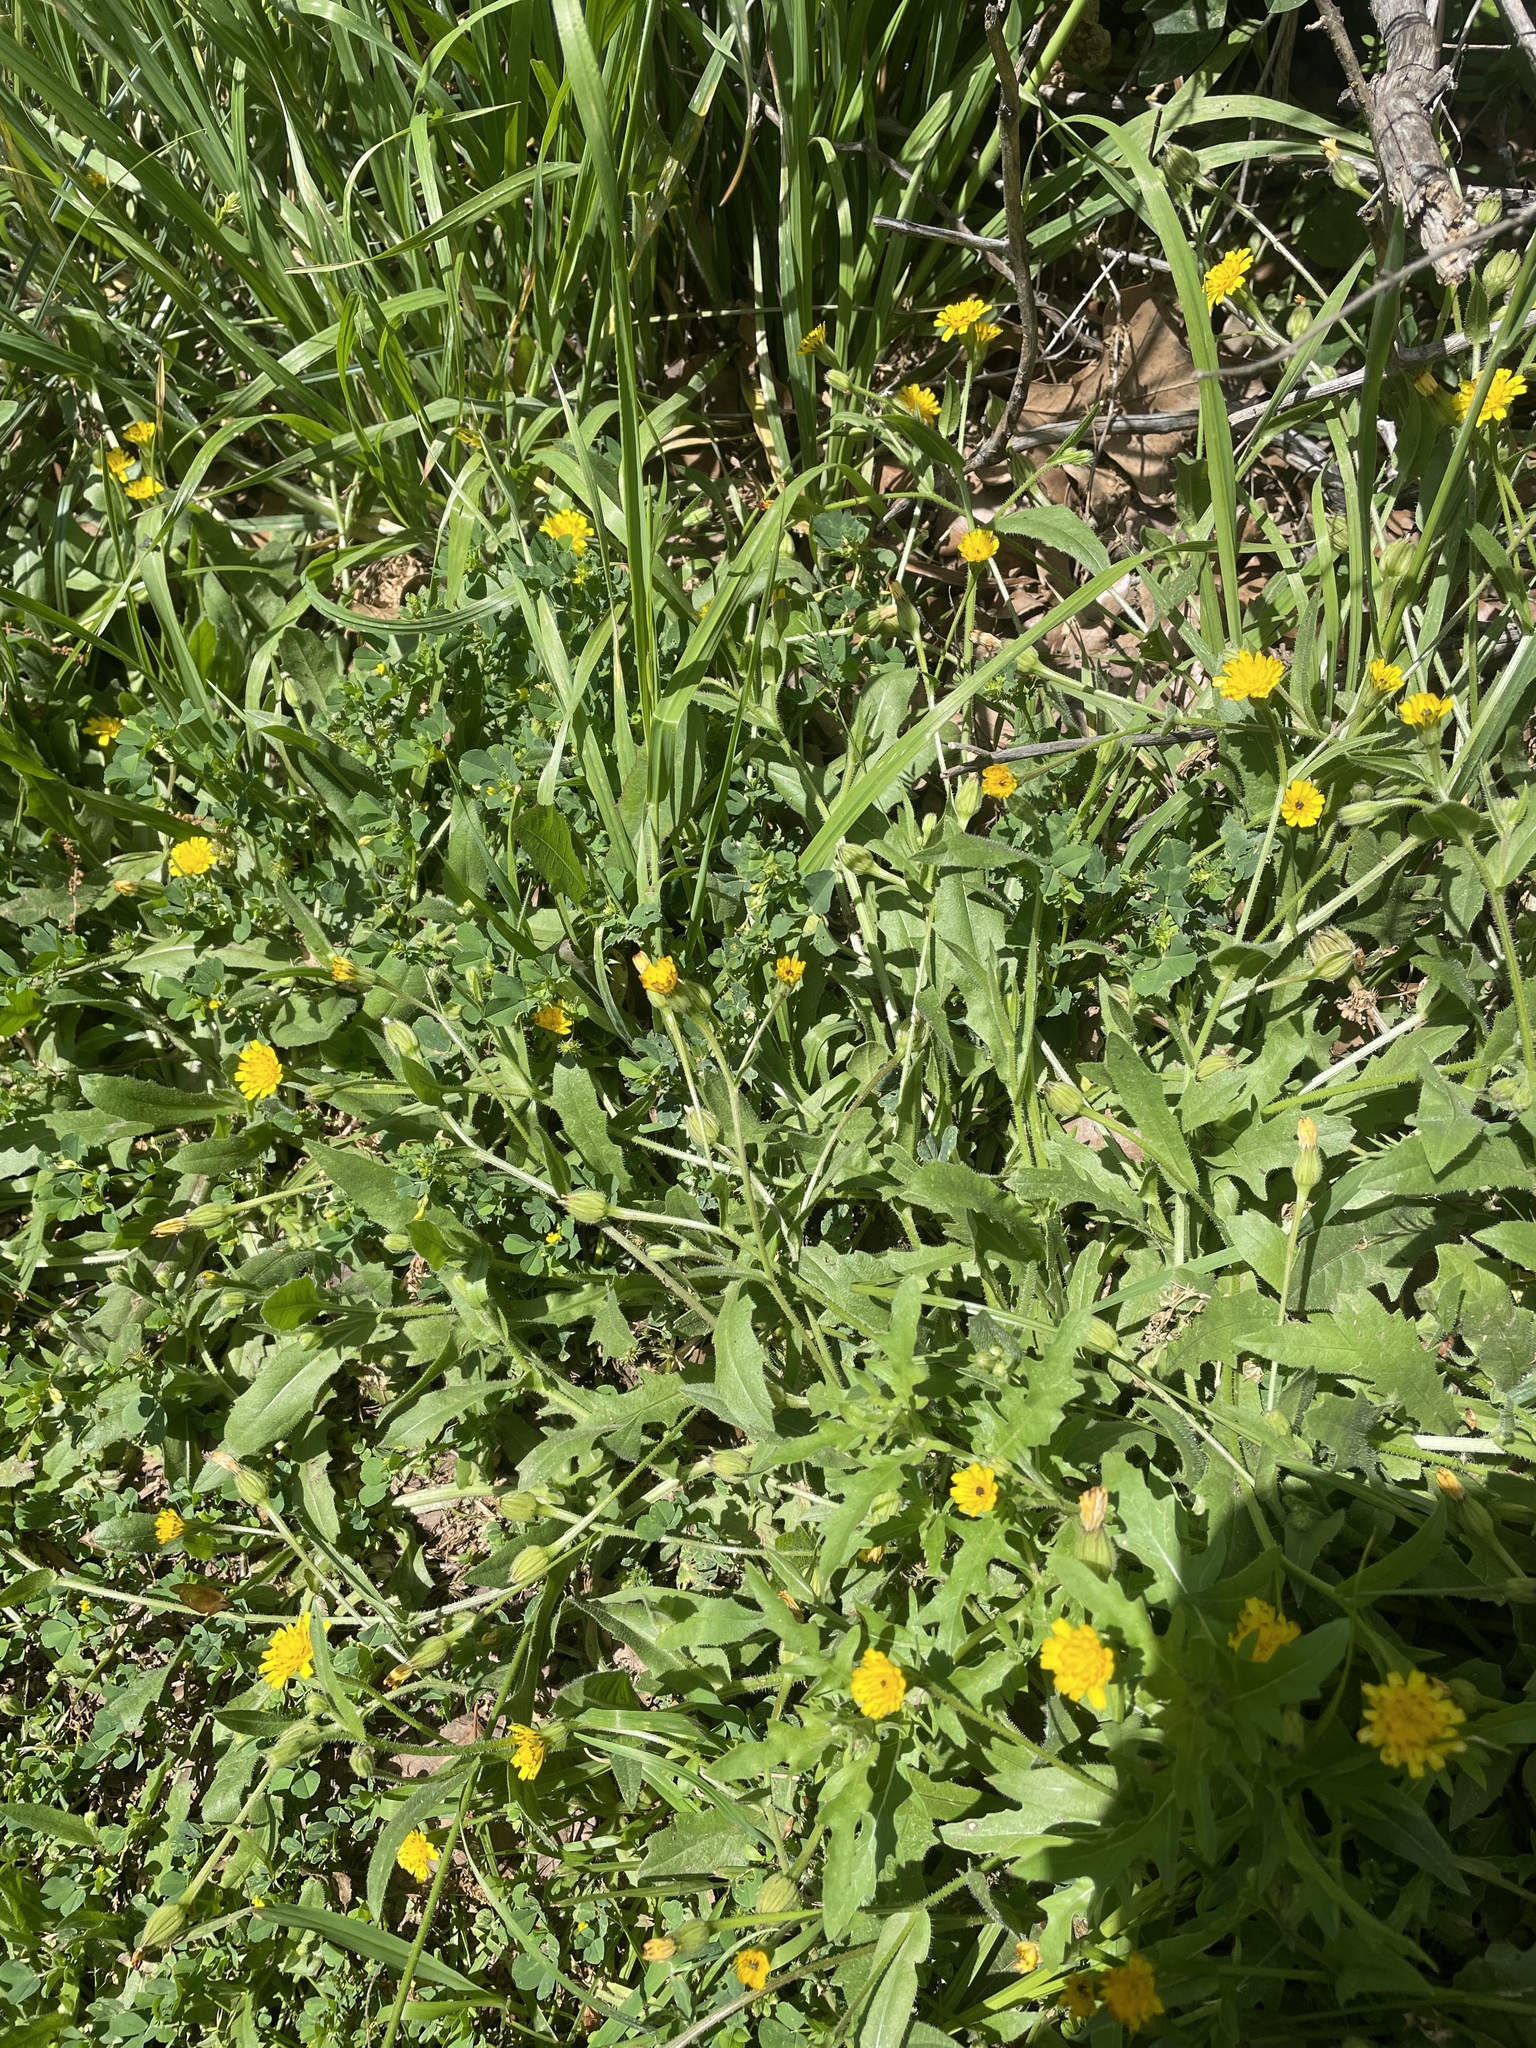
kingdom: Plantae
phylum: Tracheophyta
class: Magnoliopsida
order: Asterales
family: Asteraceae
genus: Hedypnois
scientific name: Hedypnois rhagadioloides
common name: Cretan weed
